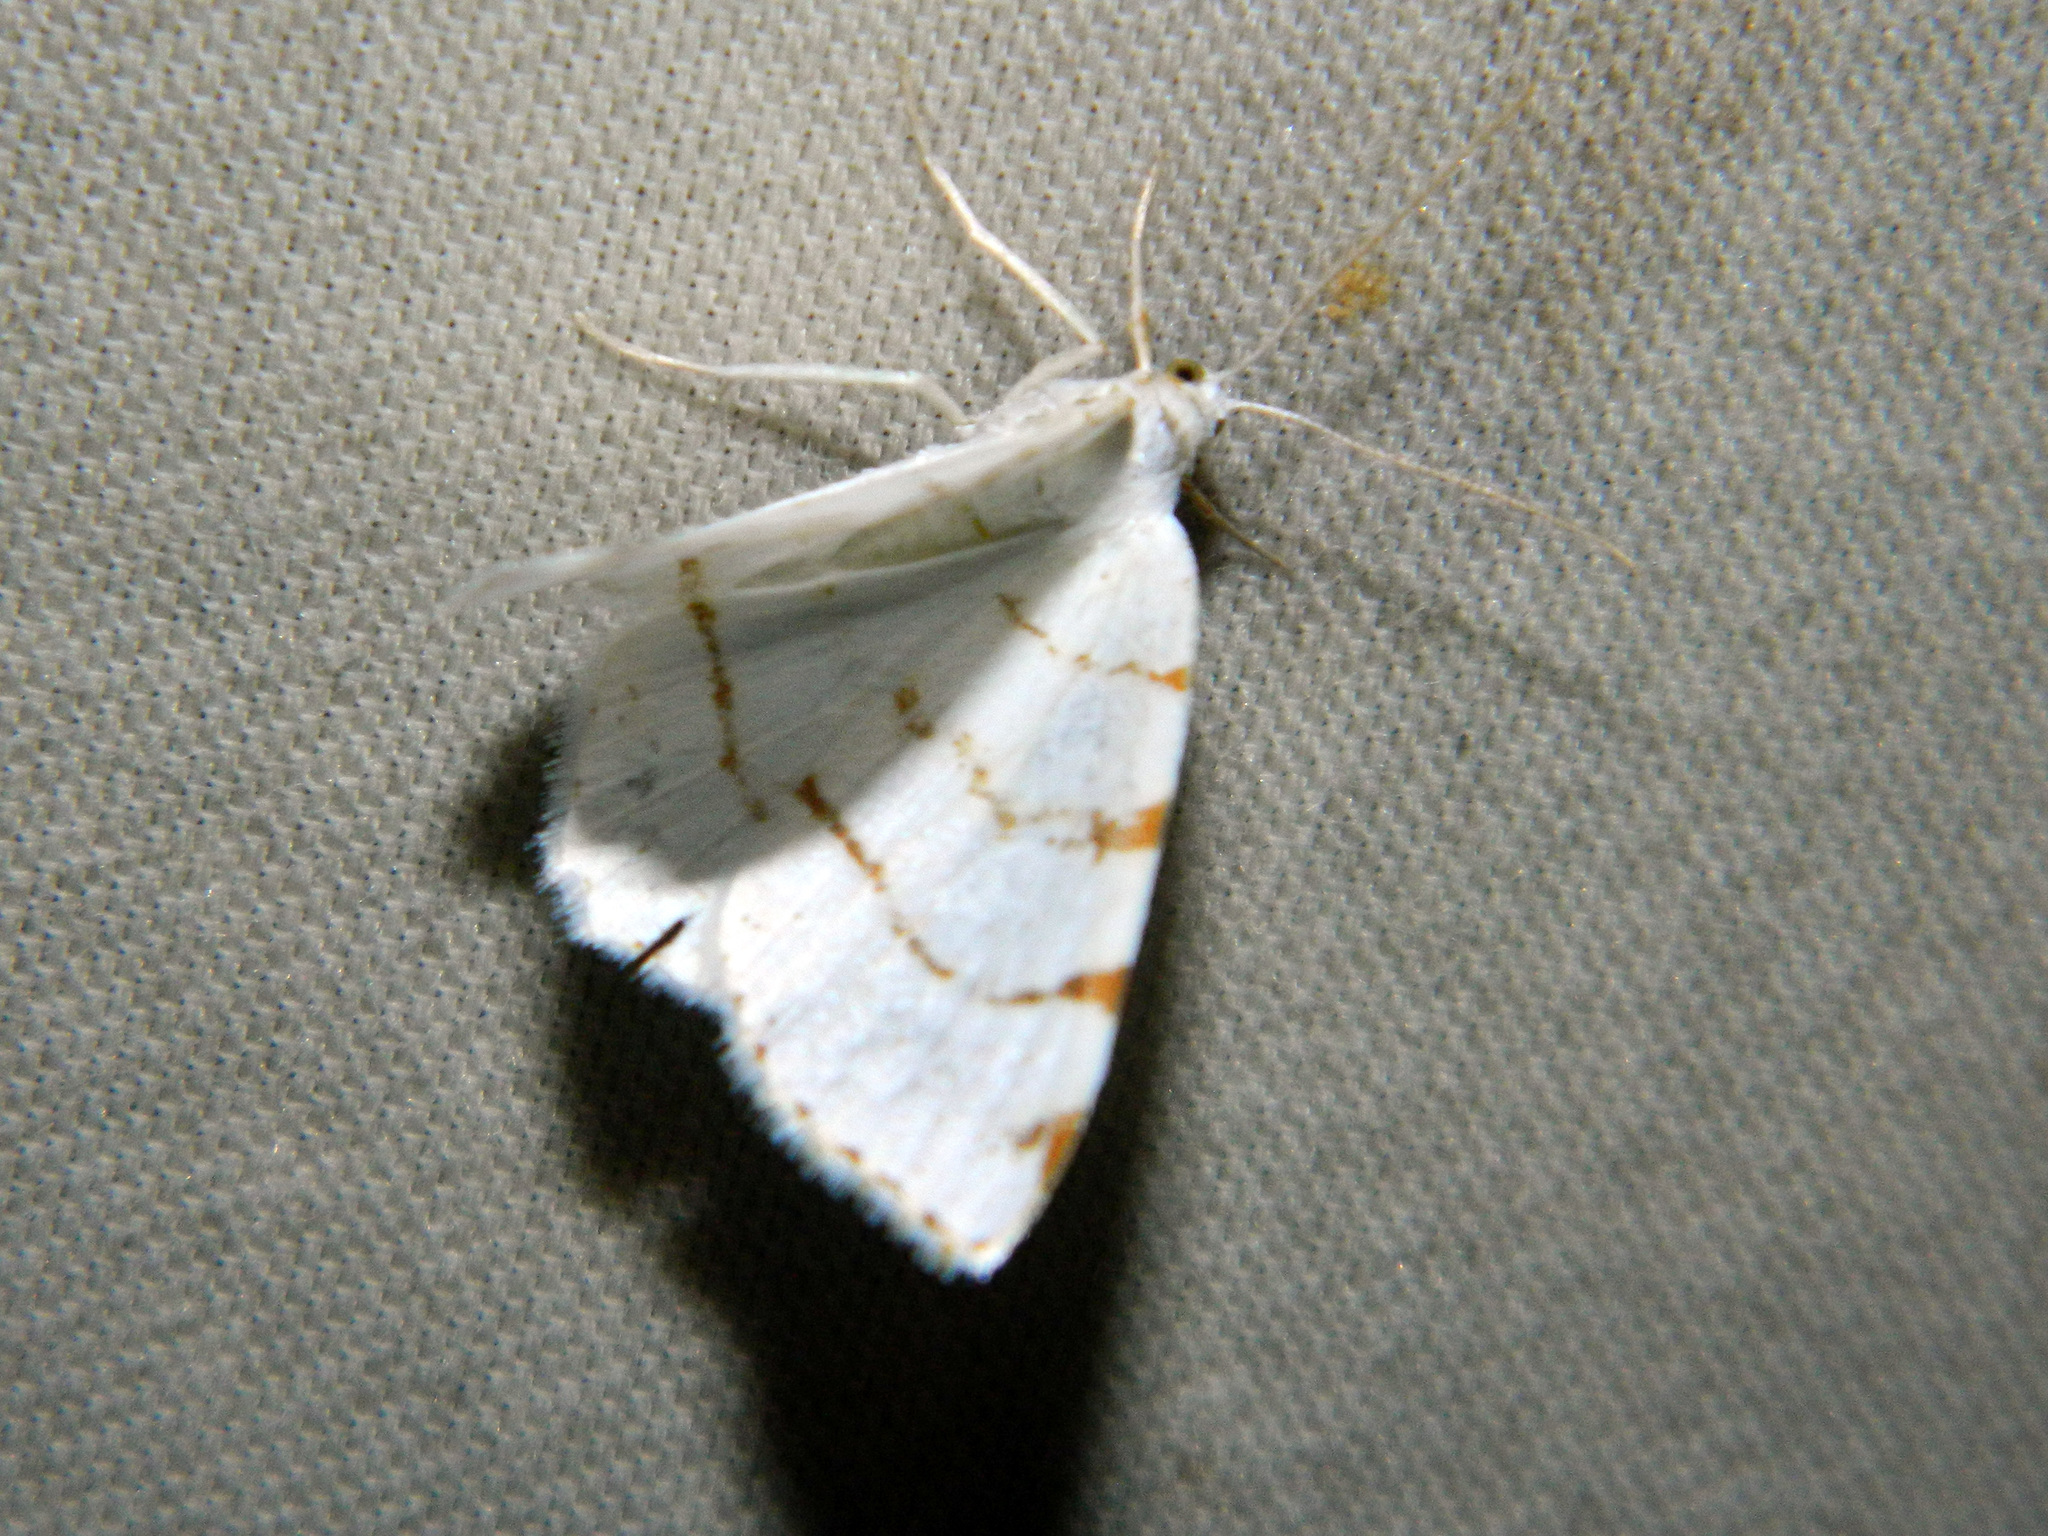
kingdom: Animalia
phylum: Arthropoda
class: Insecta
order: Lepidoptera
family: Geometridae
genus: Macaria
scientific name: Macaria pustularia
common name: Lesser maple spanworm moth
